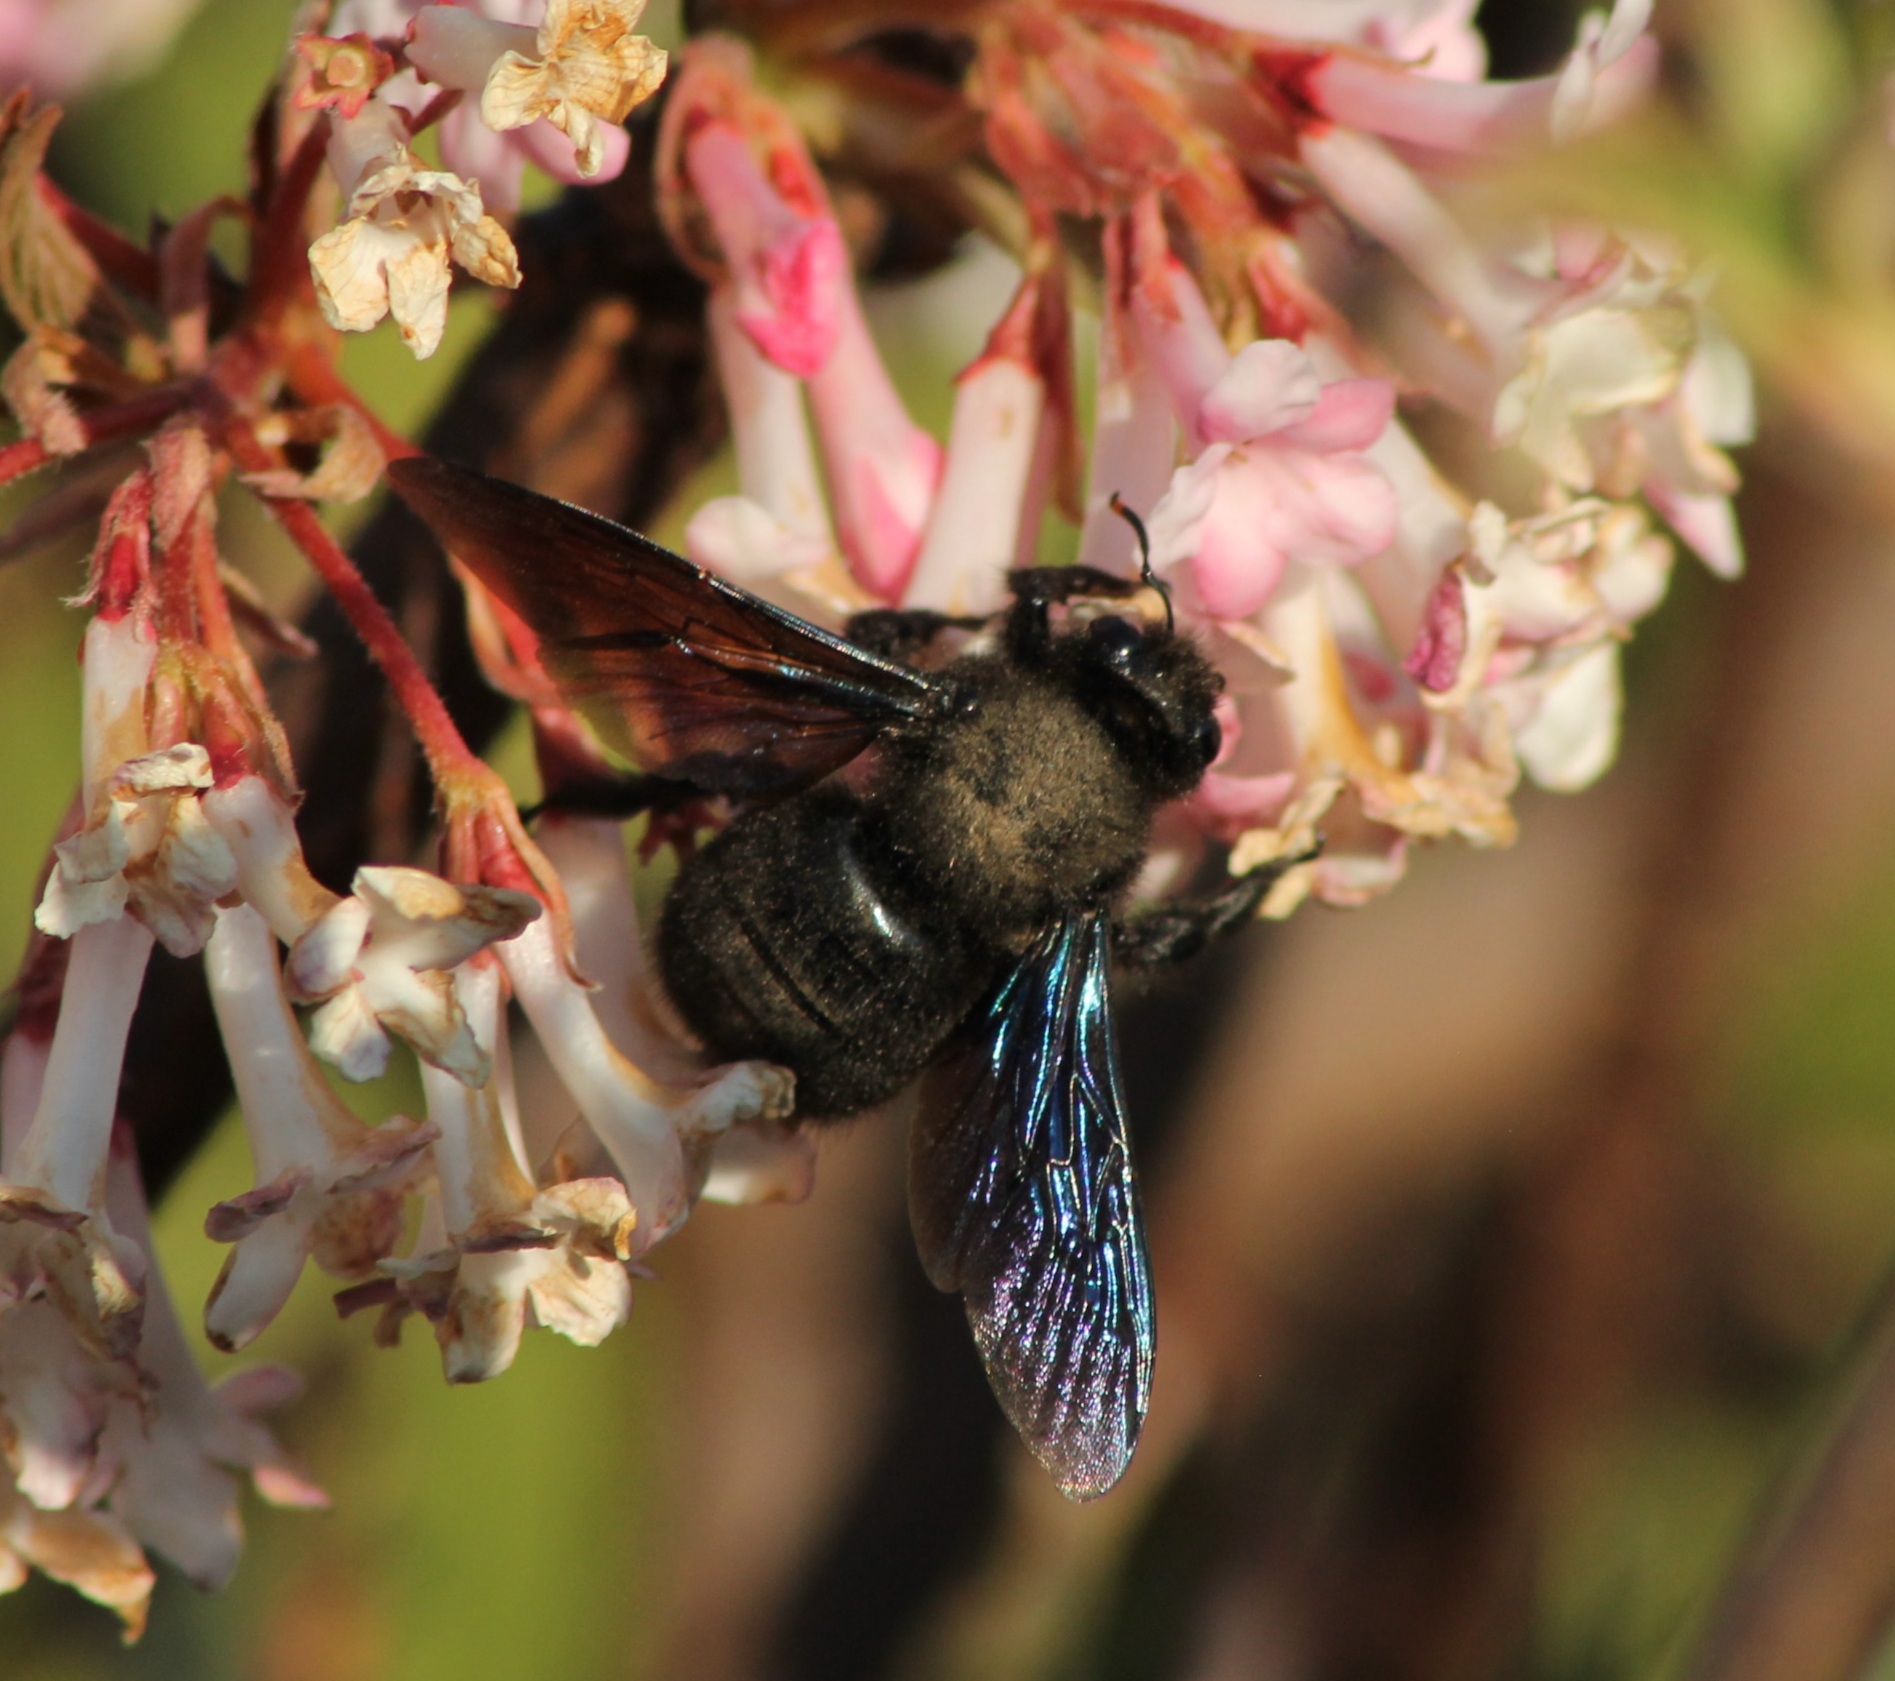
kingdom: Animalia
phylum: Arthropoda
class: Insecta
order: Hymenoptera
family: Apidae
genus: Xylocopa
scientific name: Xylocopa violacea
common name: Violet carpenter bee
